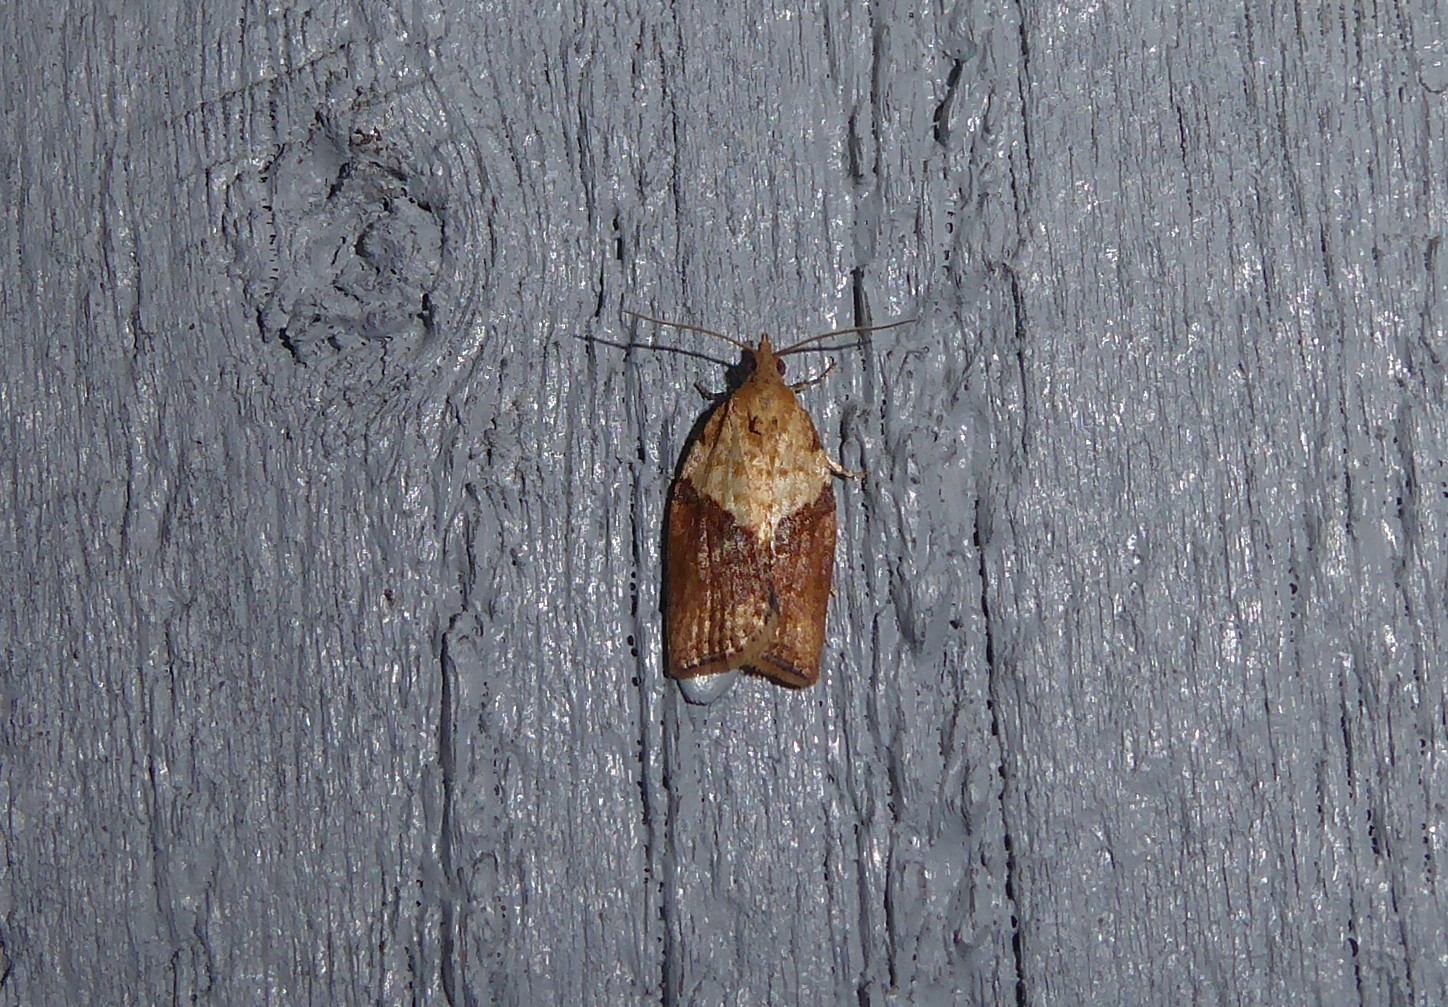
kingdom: Animalia
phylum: Arthropoda
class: Insecta
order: Lepidoptera
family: Tortricidae
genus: Epiphyas
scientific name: Epiphyas postvittana
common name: Light brown apple moth
